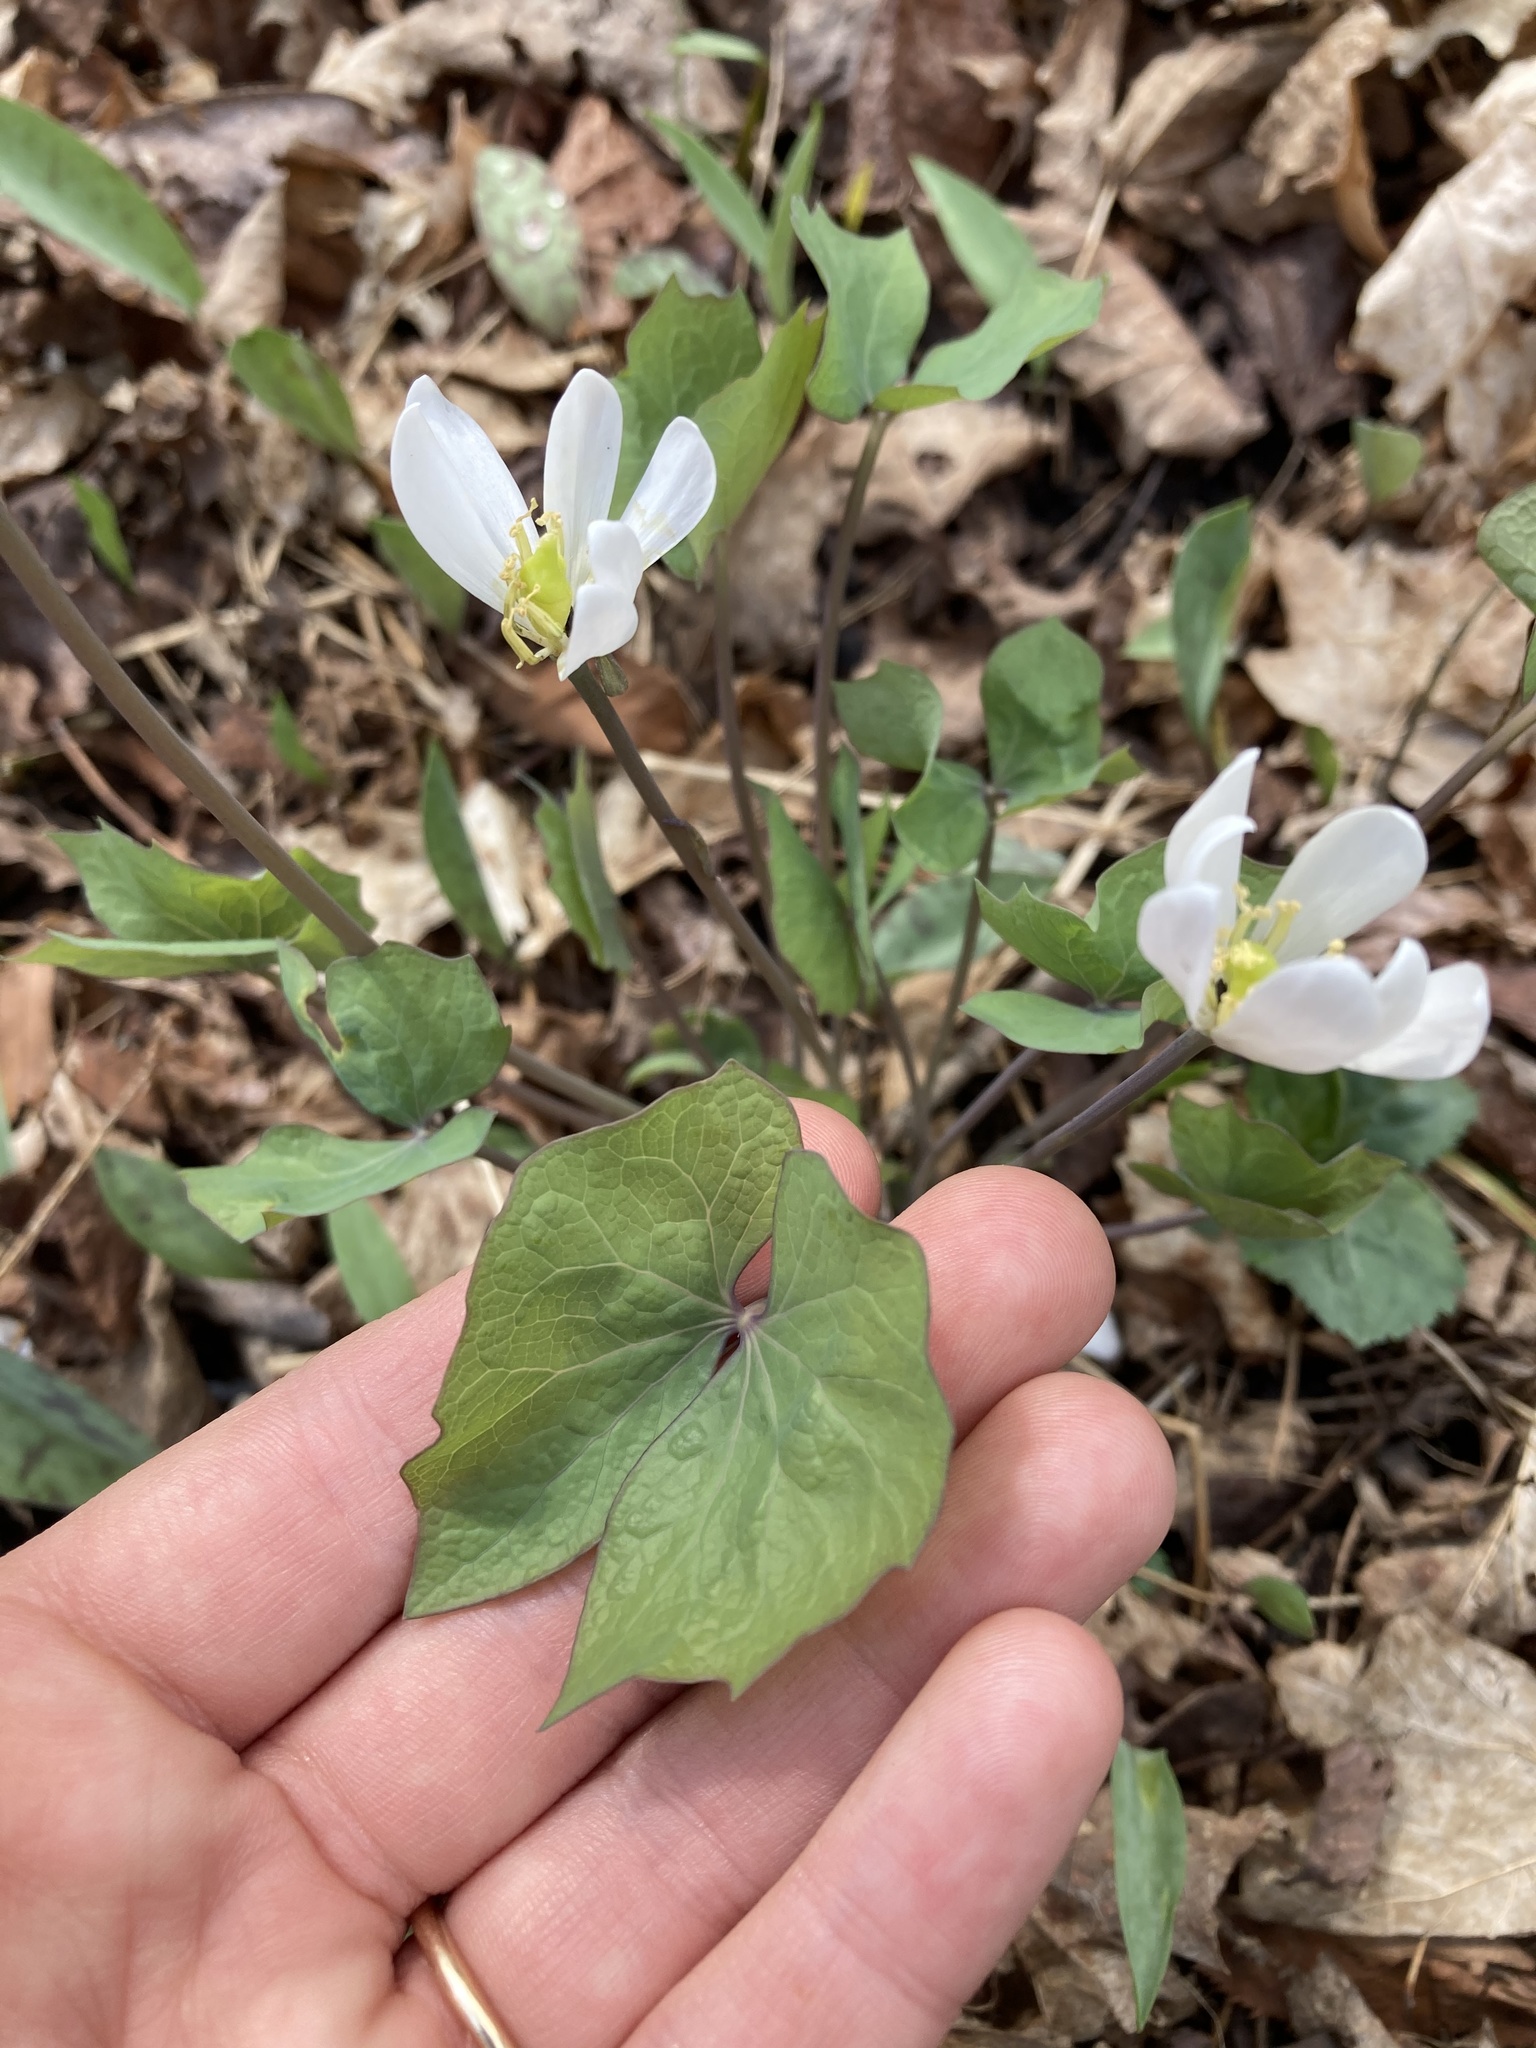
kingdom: Plantae
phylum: Tracheophyta
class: Magnoliopsida
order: Ranunculales
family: Berberidaceae
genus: Jeffersonia
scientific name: Jeffersonia diphylla
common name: Rheumatism-root
